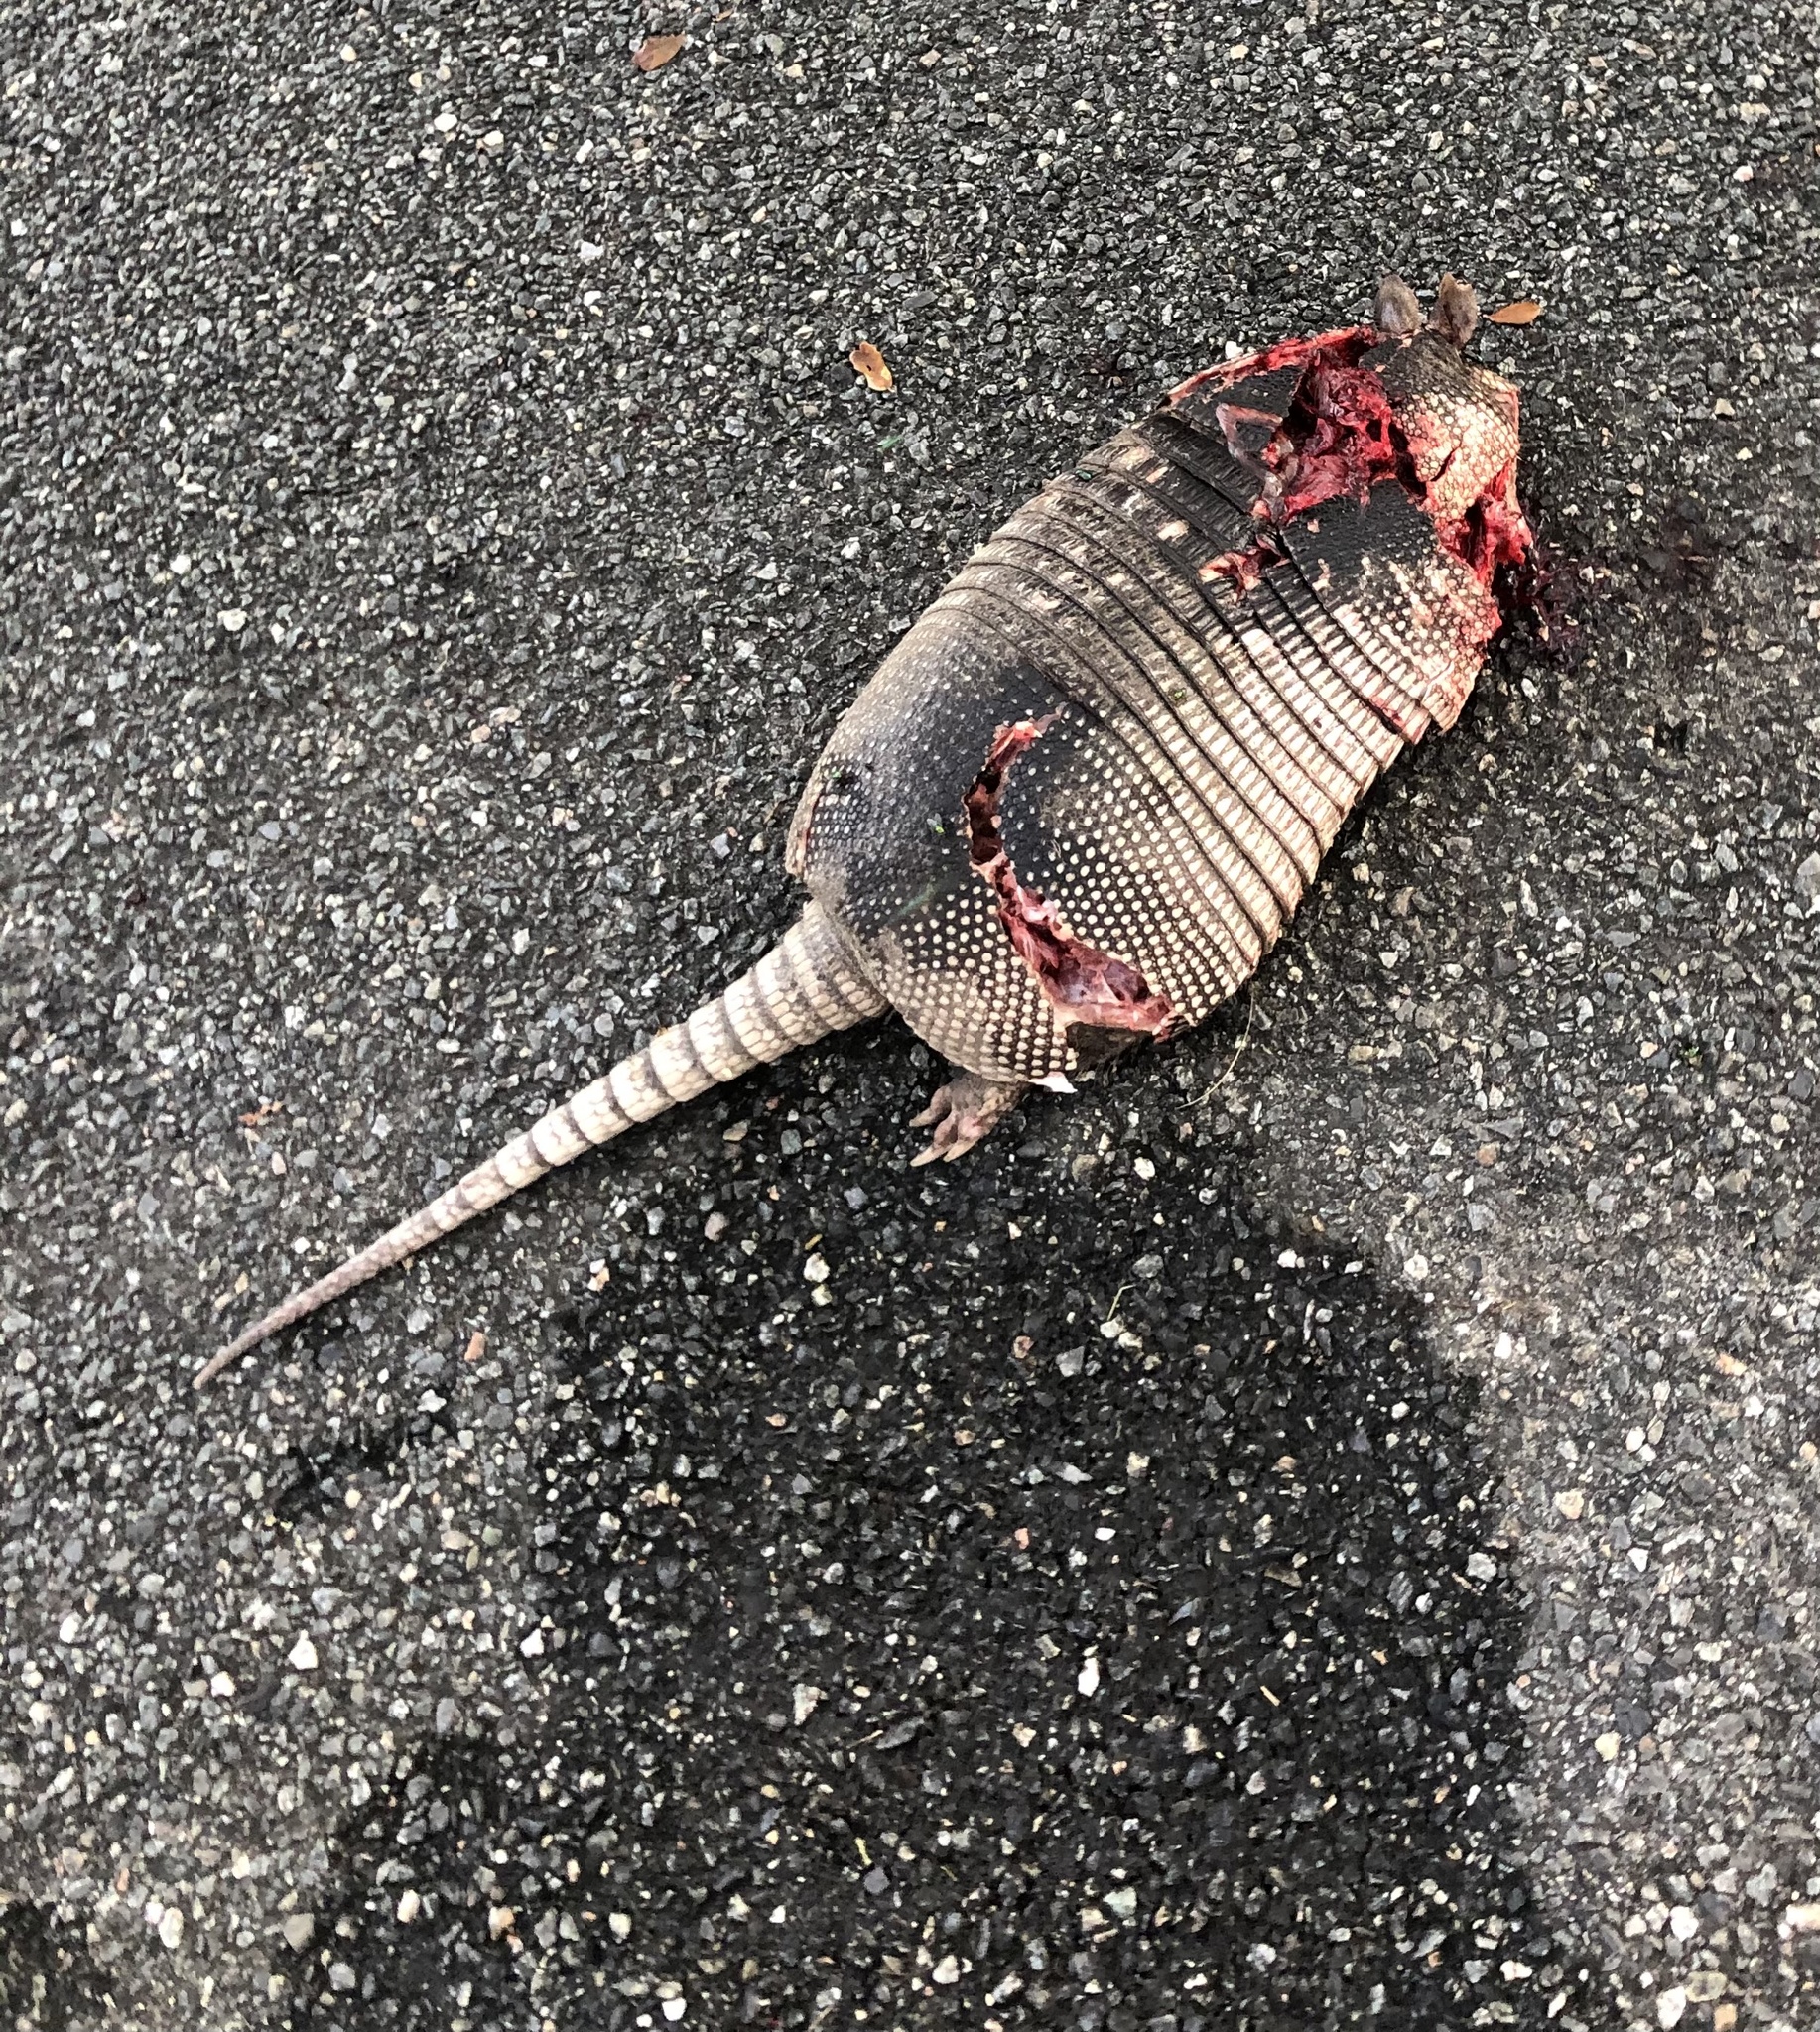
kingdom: Animalia
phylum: Chordata
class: Mammalia
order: Cingulata
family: Dasypodidae
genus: Dasypus
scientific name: Dasypus novemcinctus
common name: Nine-banded armadillo
